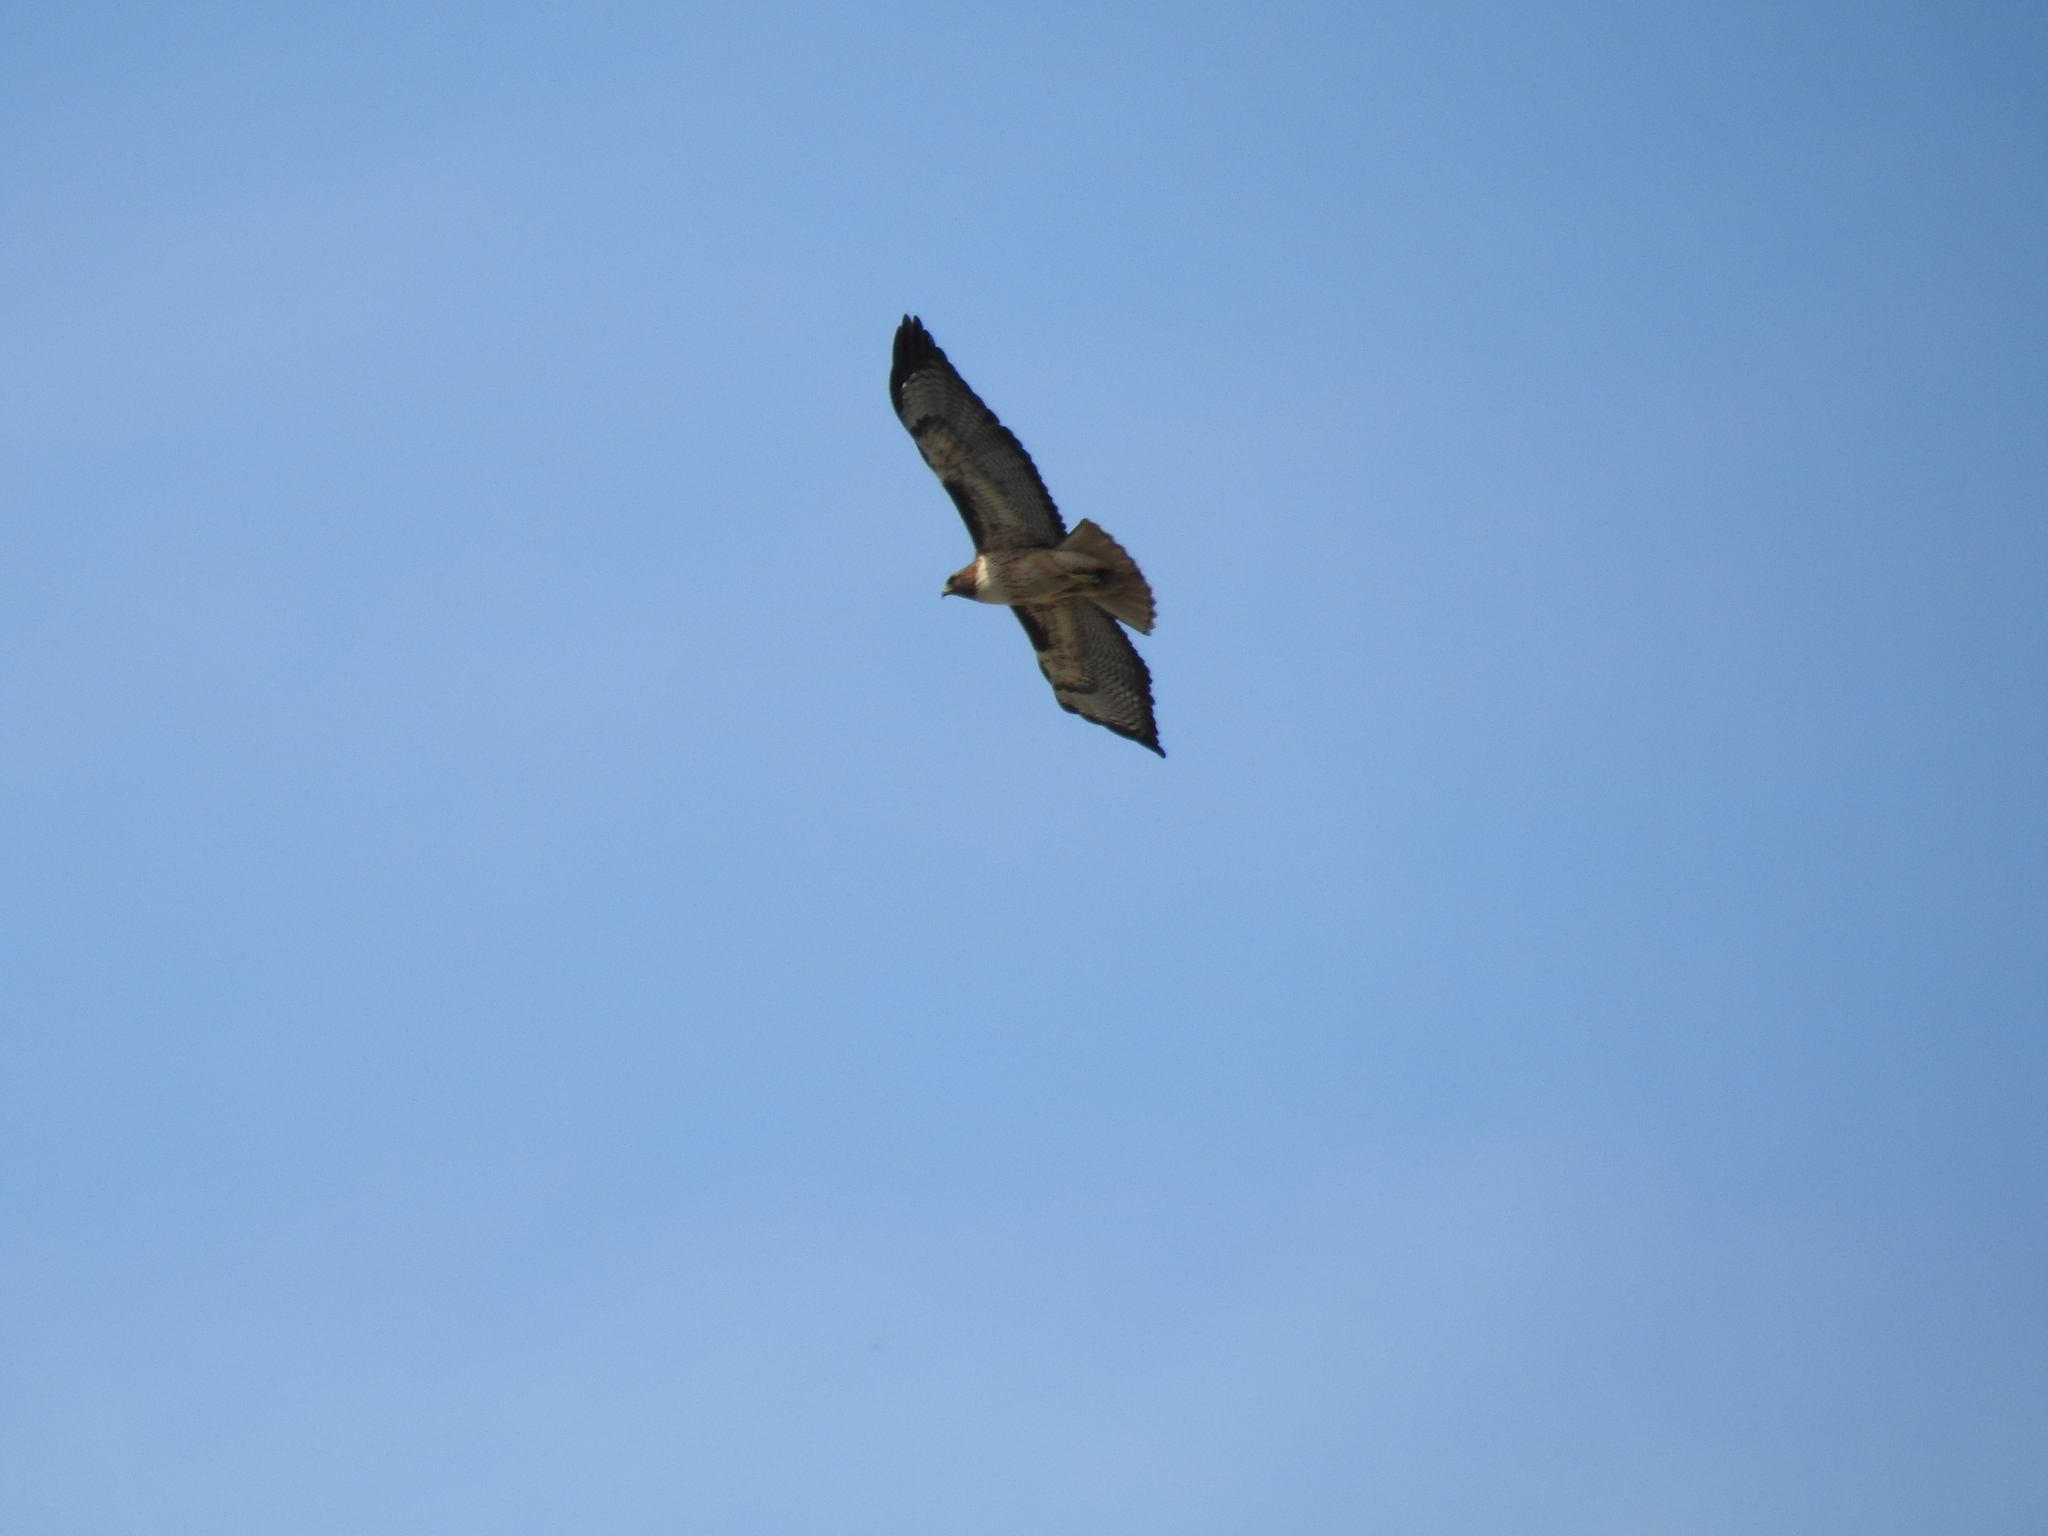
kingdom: Animalia
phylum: Chordata
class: Aves
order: Accipitriformes
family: Accipitridae
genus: Buteo
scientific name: Buteo jamaicensis
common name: Red-tailed hawk
